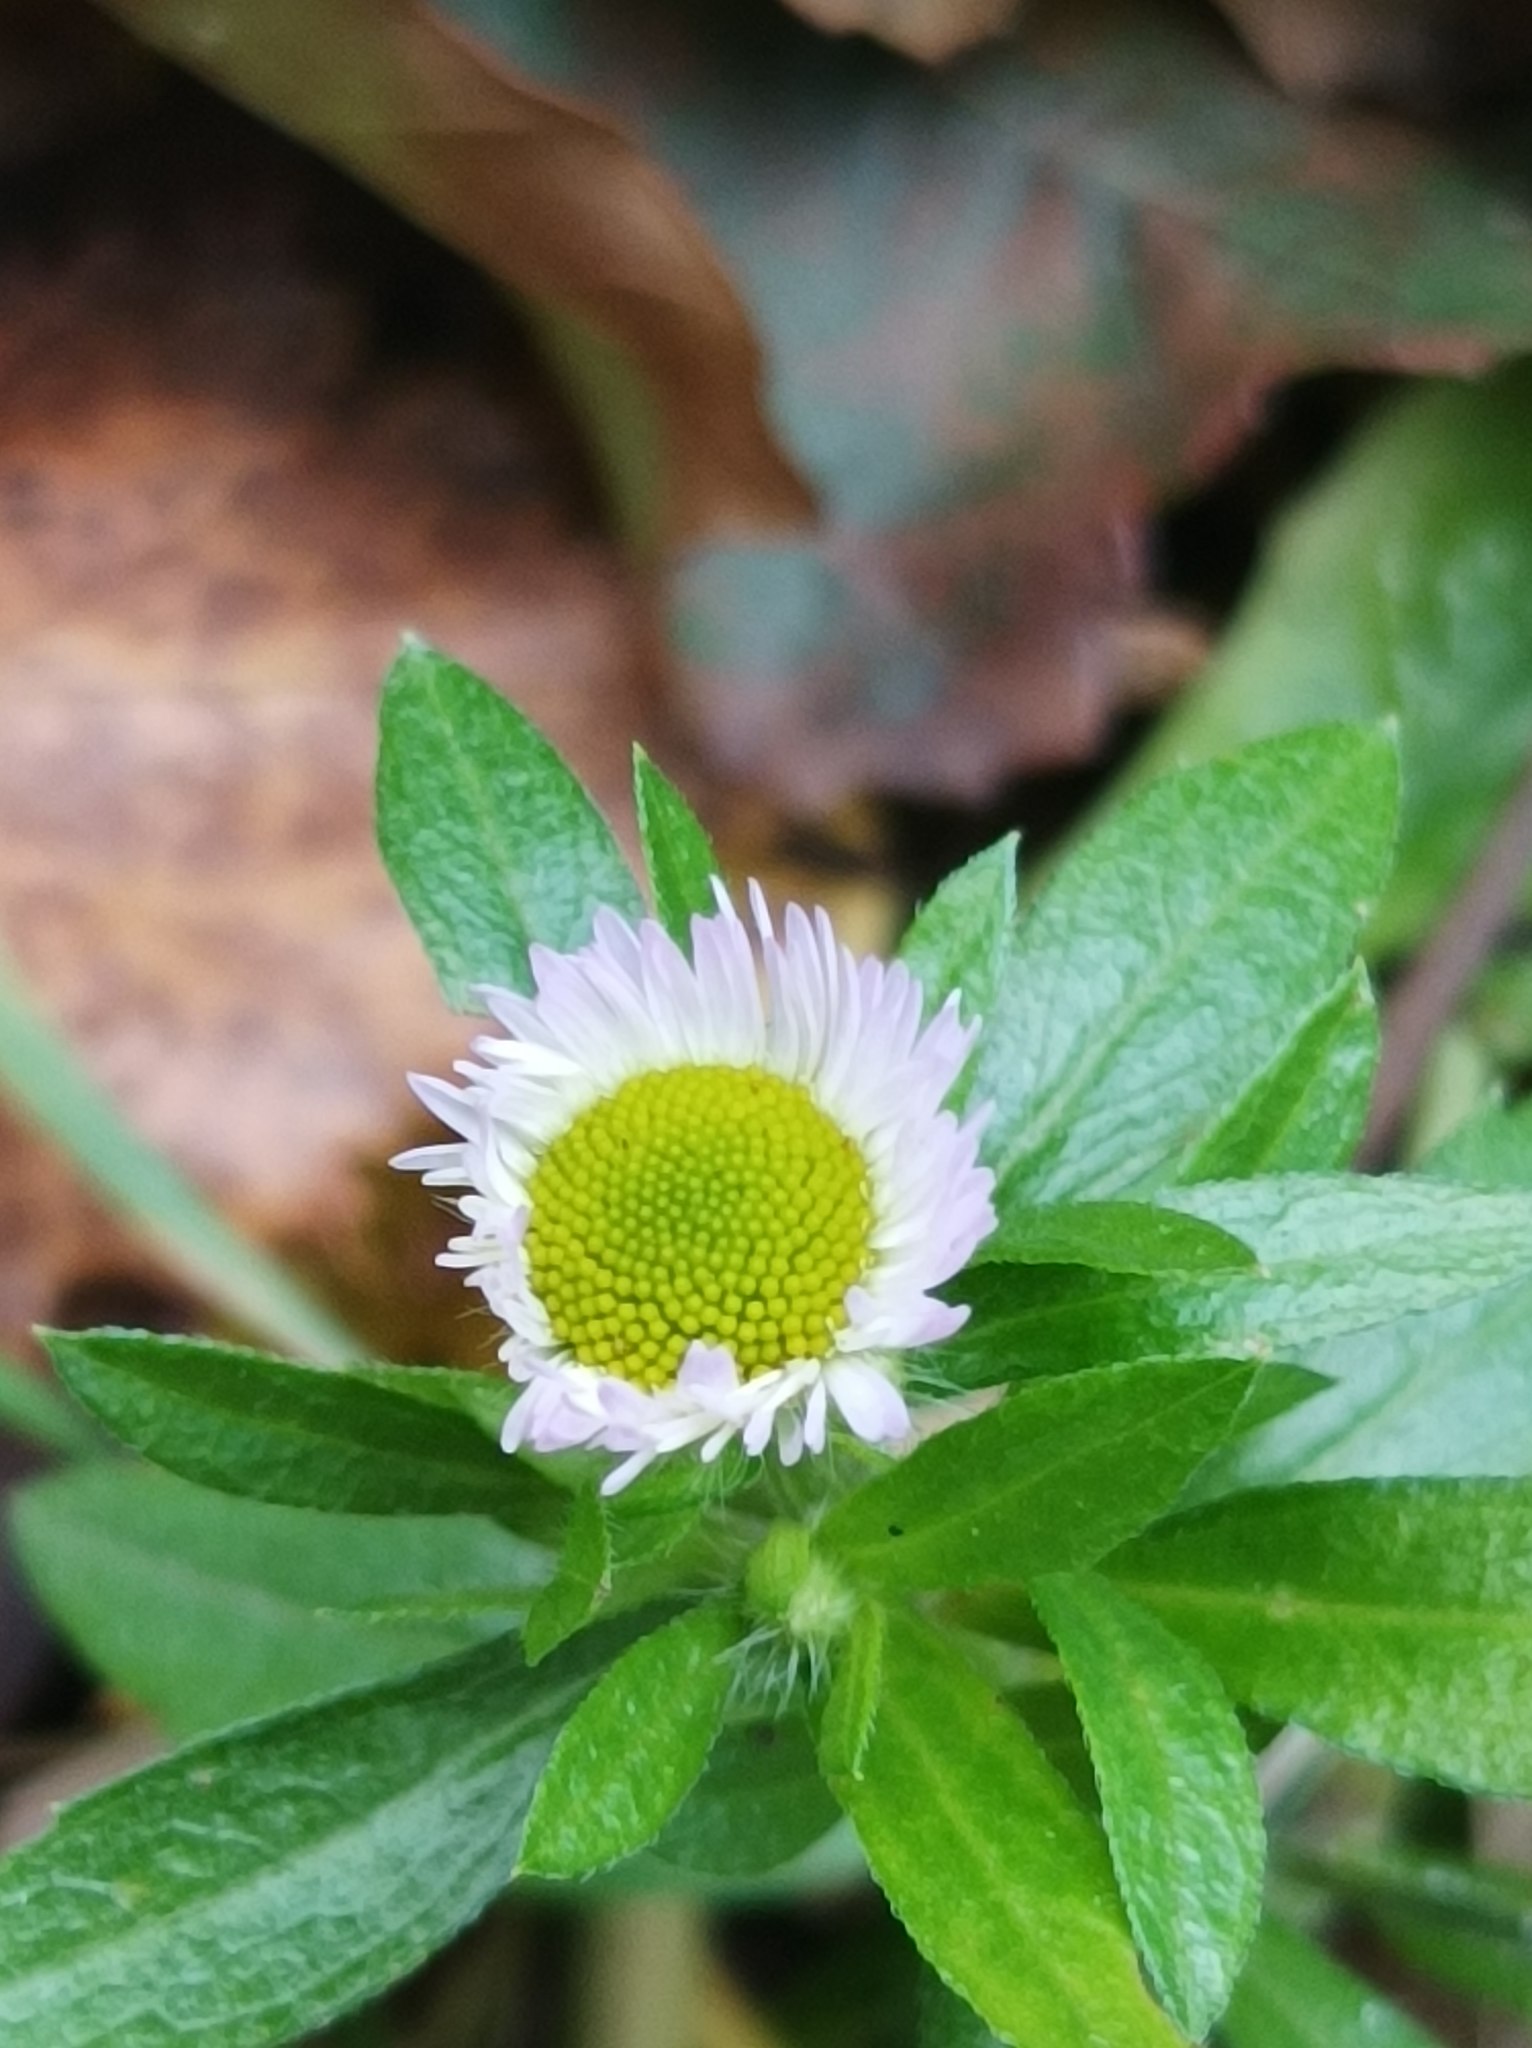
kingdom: Plantae
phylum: Tracheophyta
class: Magnoliopsida
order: Asterales
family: Asteraceae
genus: Erigeron
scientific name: Erigeron annuus
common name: Tall fleabane
